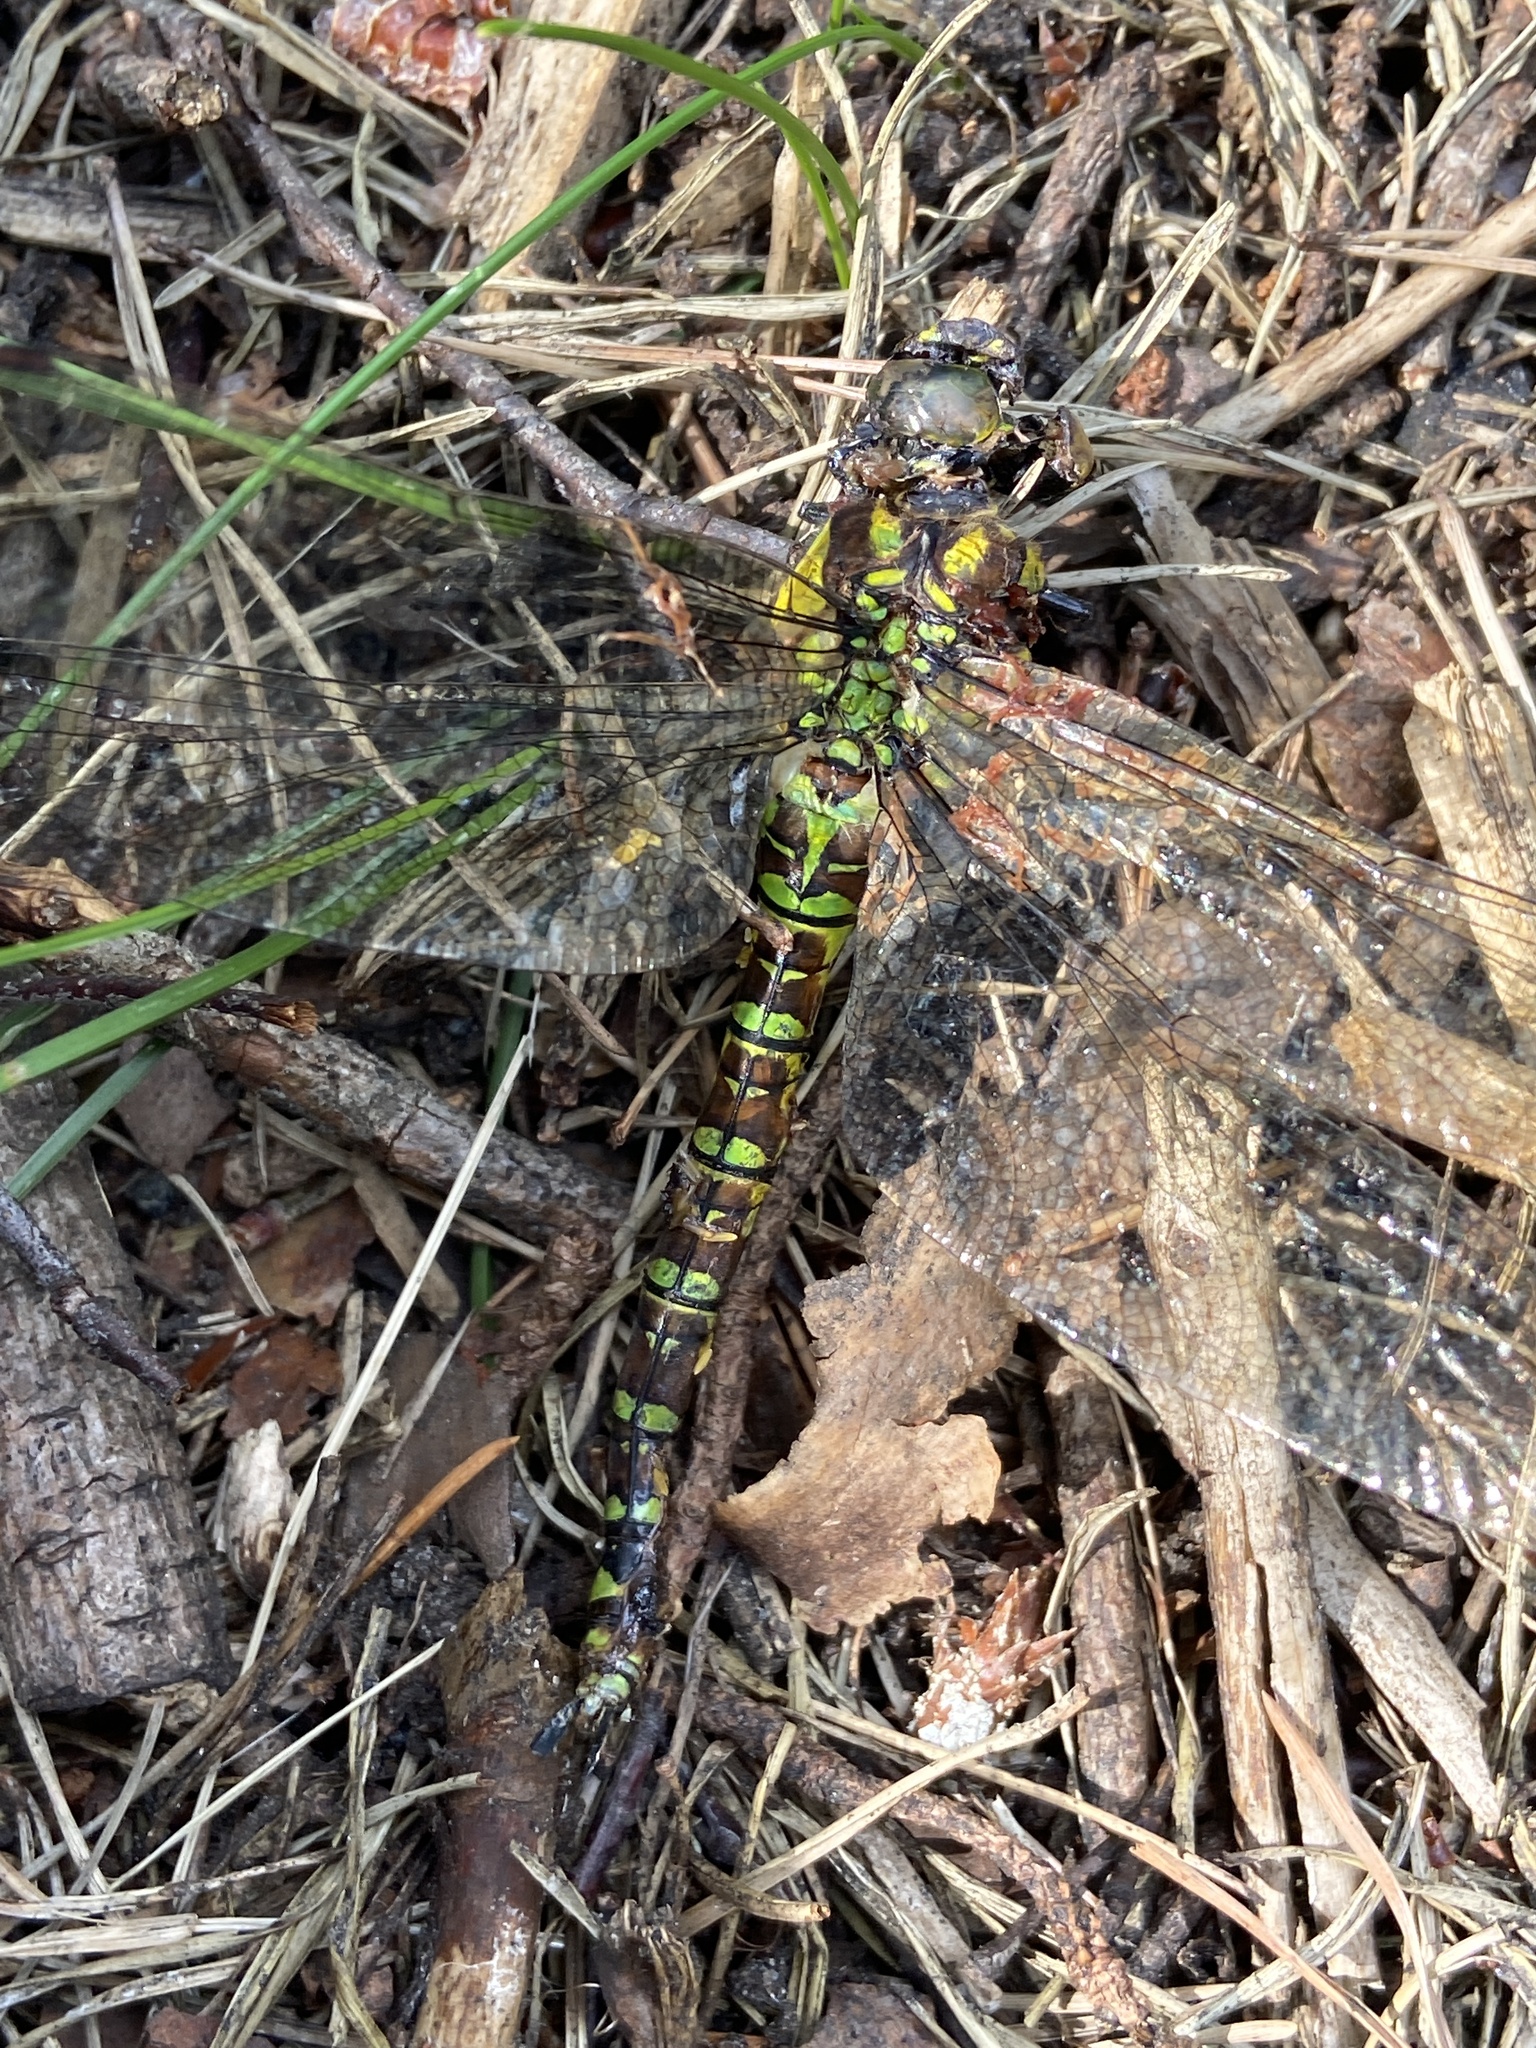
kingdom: Animalia
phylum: Arthropoda
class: Insecta
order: Odonata
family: Aeshnidae
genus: Aeshna
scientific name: Aeshna cyanea
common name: Southern hawker
